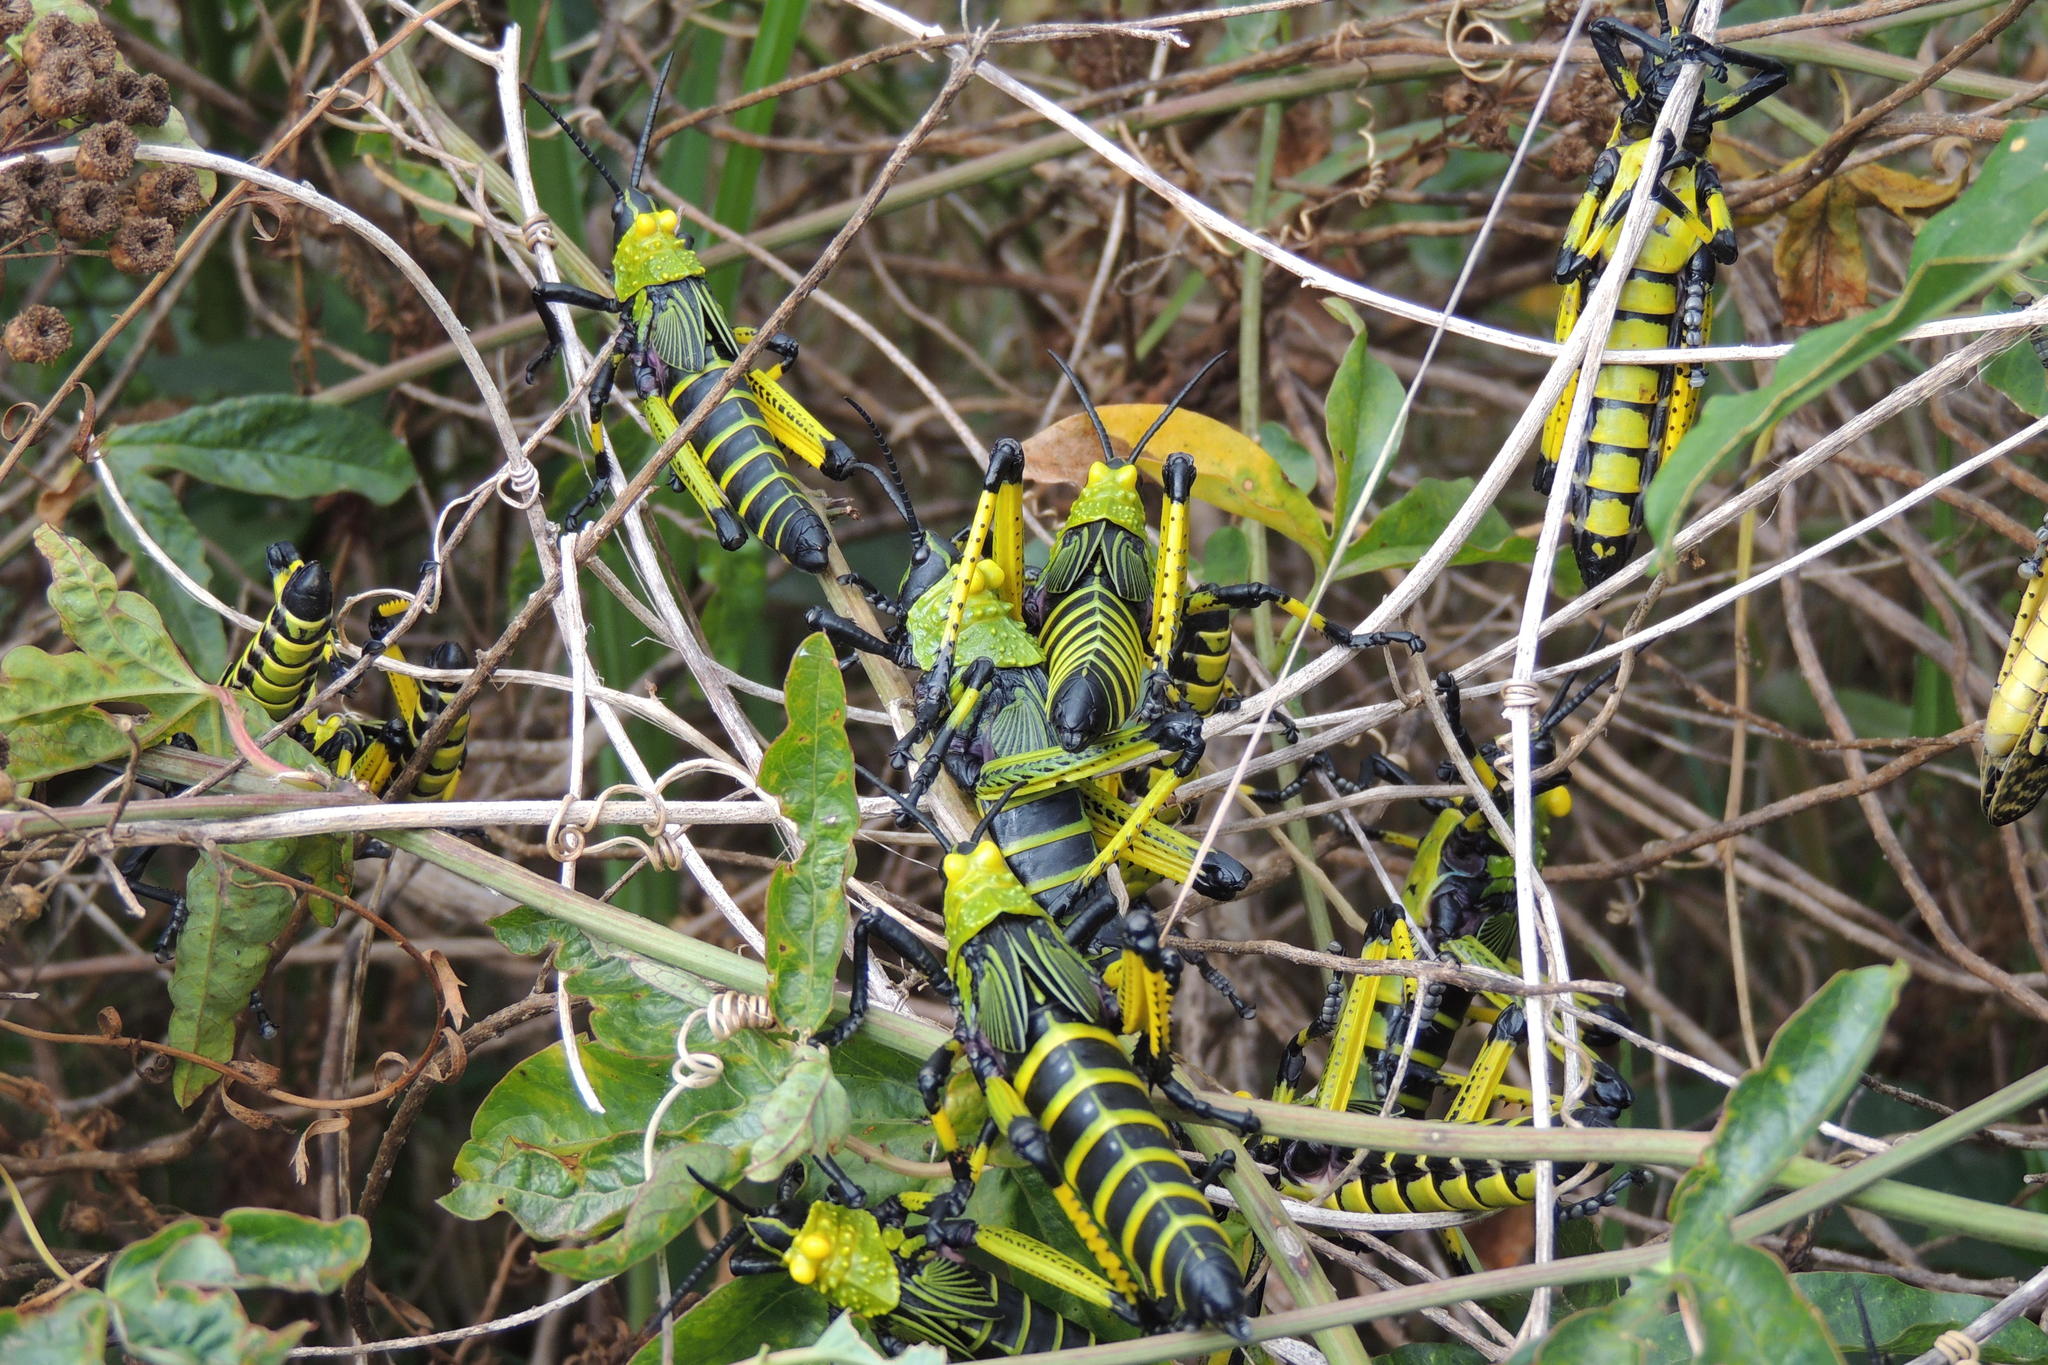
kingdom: Animalia
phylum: Arthropoda
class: Insecta
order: Orthoptera
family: Pyrgomorphidae
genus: Phymateus
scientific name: Phymateus leprosus
